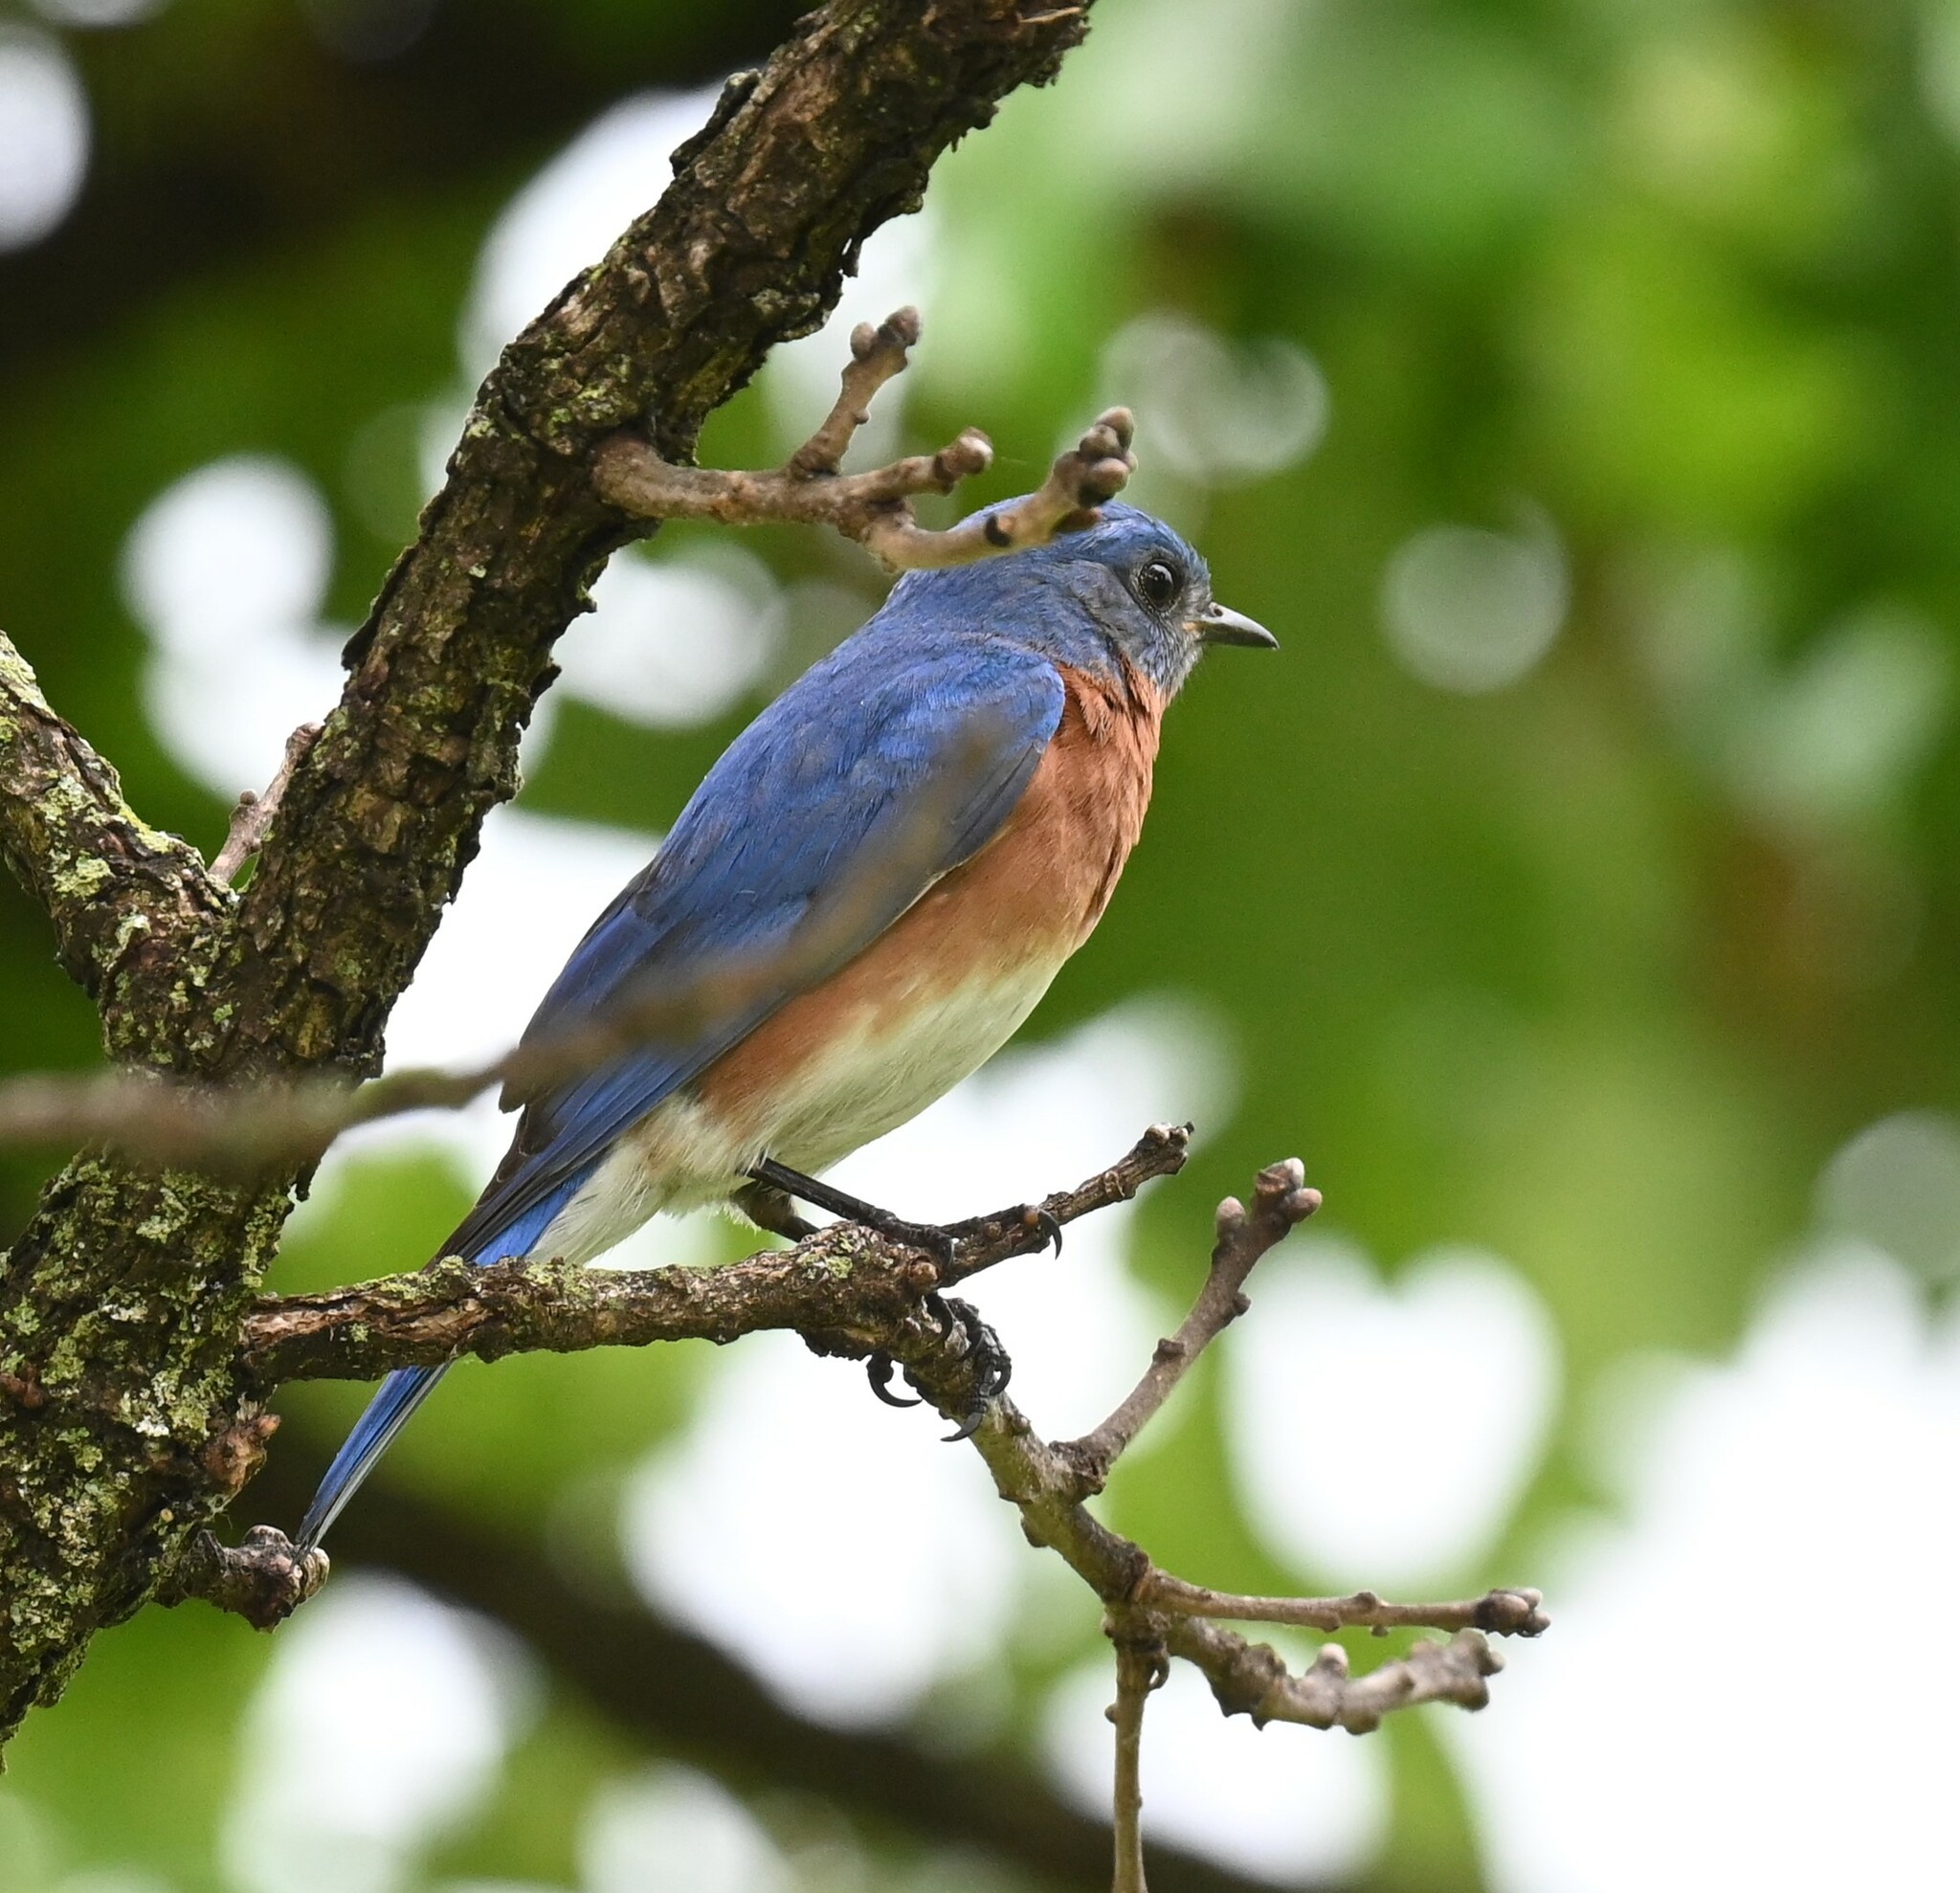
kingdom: Animalia
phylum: Chordata
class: Aves
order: Passeriformes
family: Turdidae
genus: Sialia
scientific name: Sialia sialis
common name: Eastern bluebird
